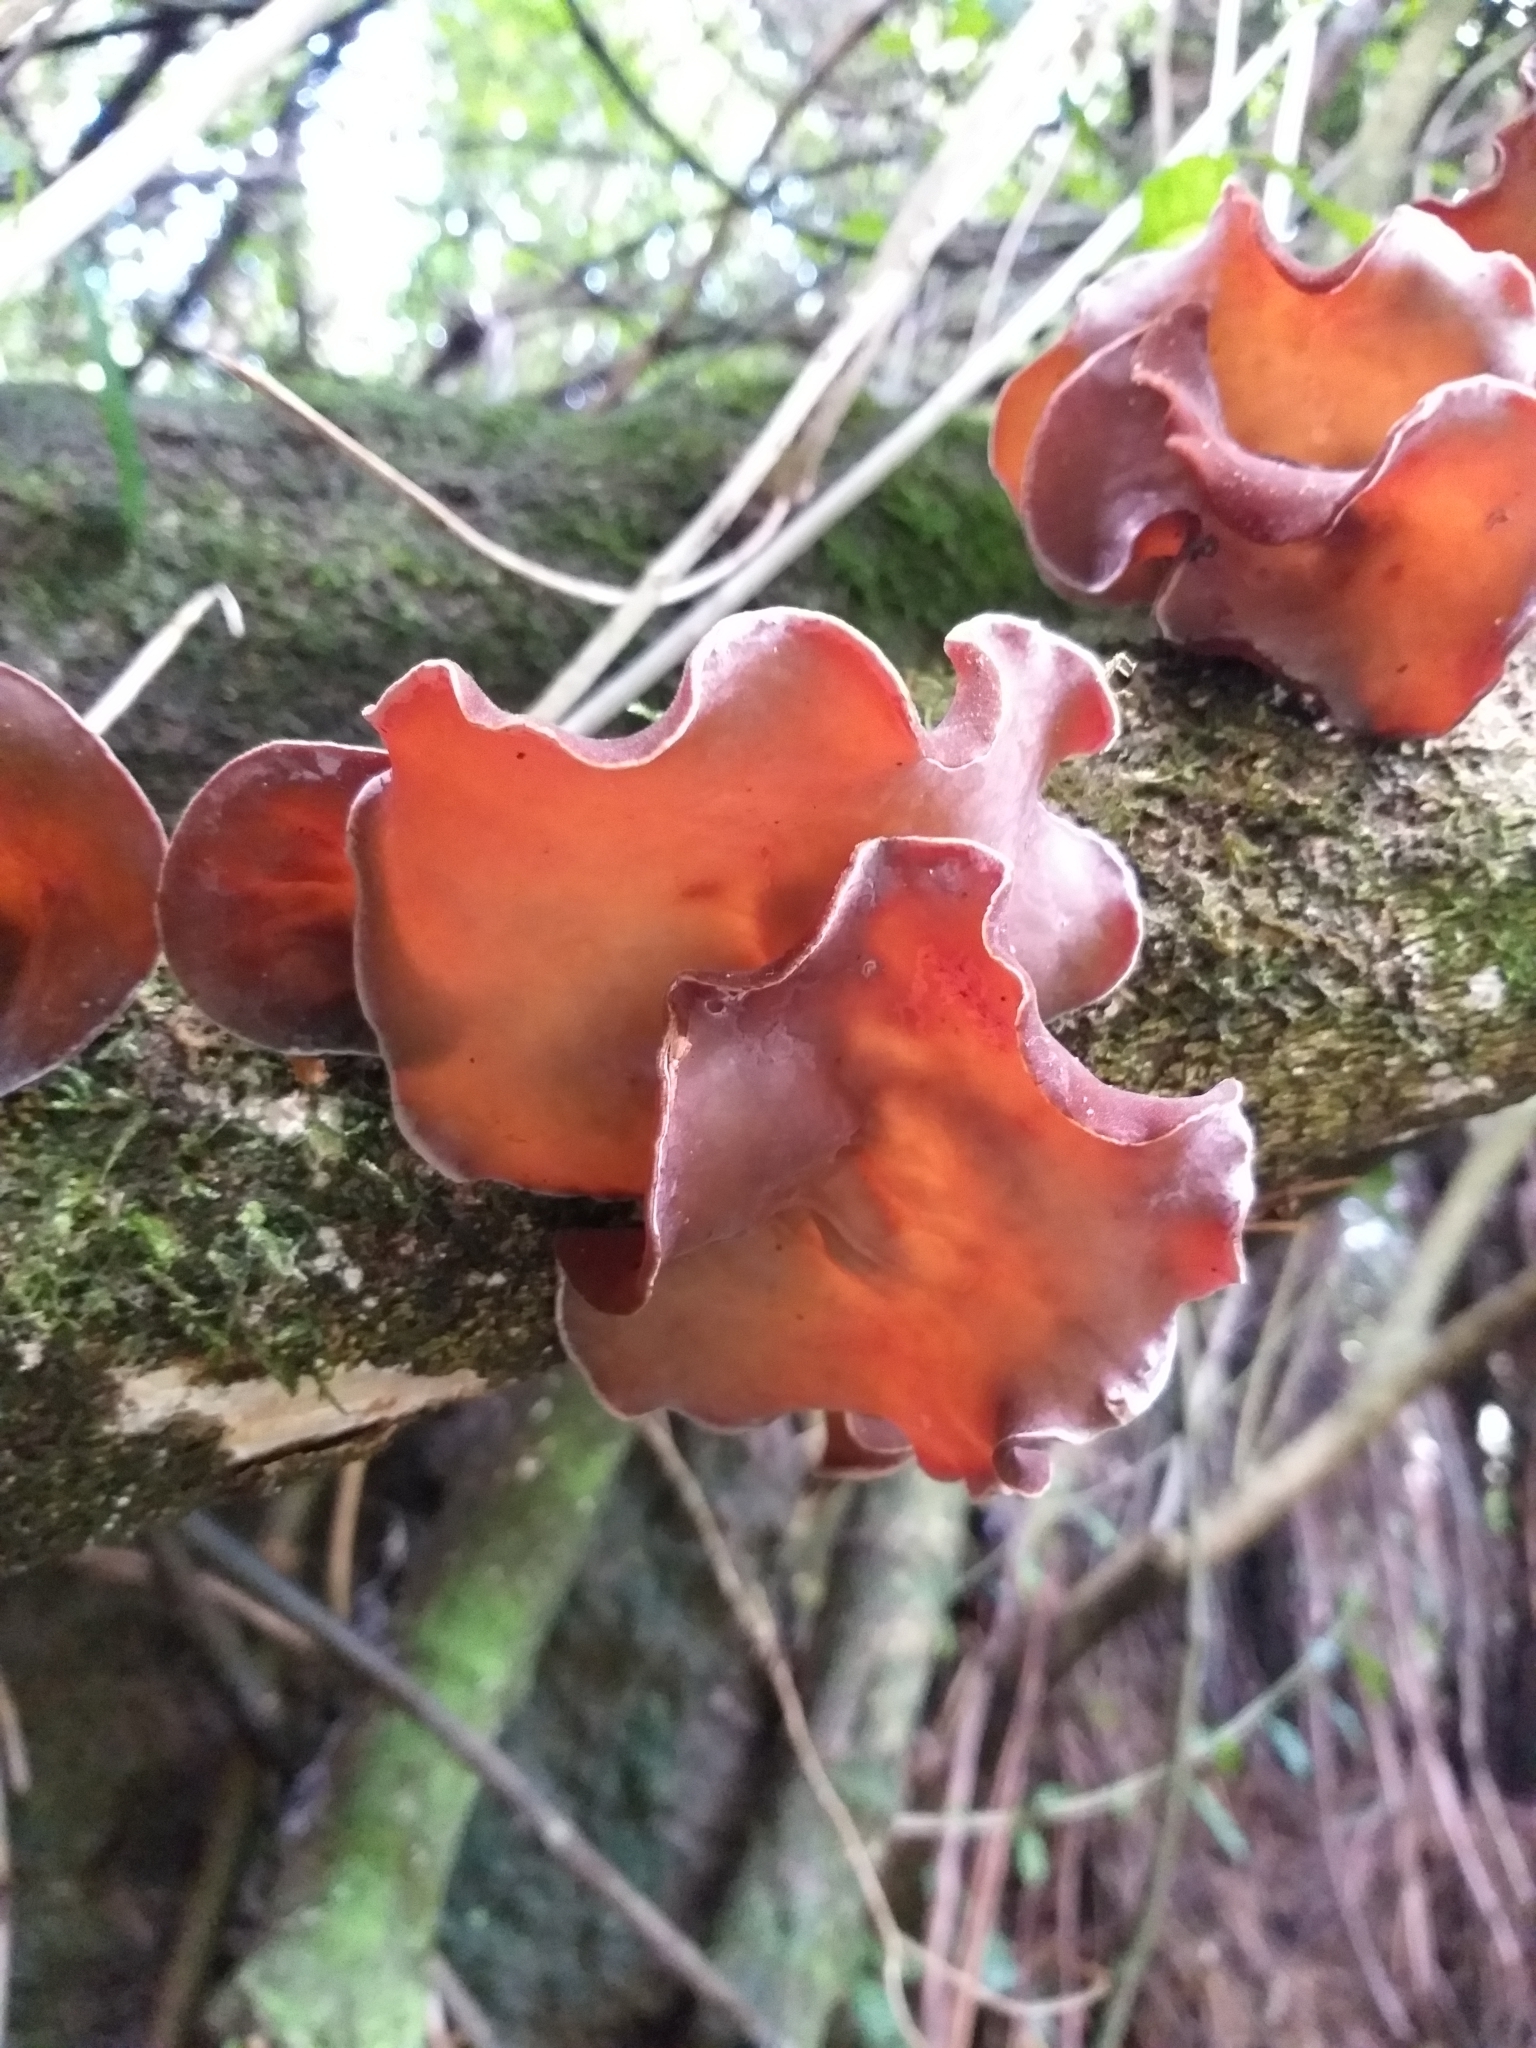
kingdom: Fungi
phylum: Basidiomycota
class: Agaricomycetes
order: Auriculariales
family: Auriculariaceae
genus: Auricularia
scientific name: Auricularia cornea
